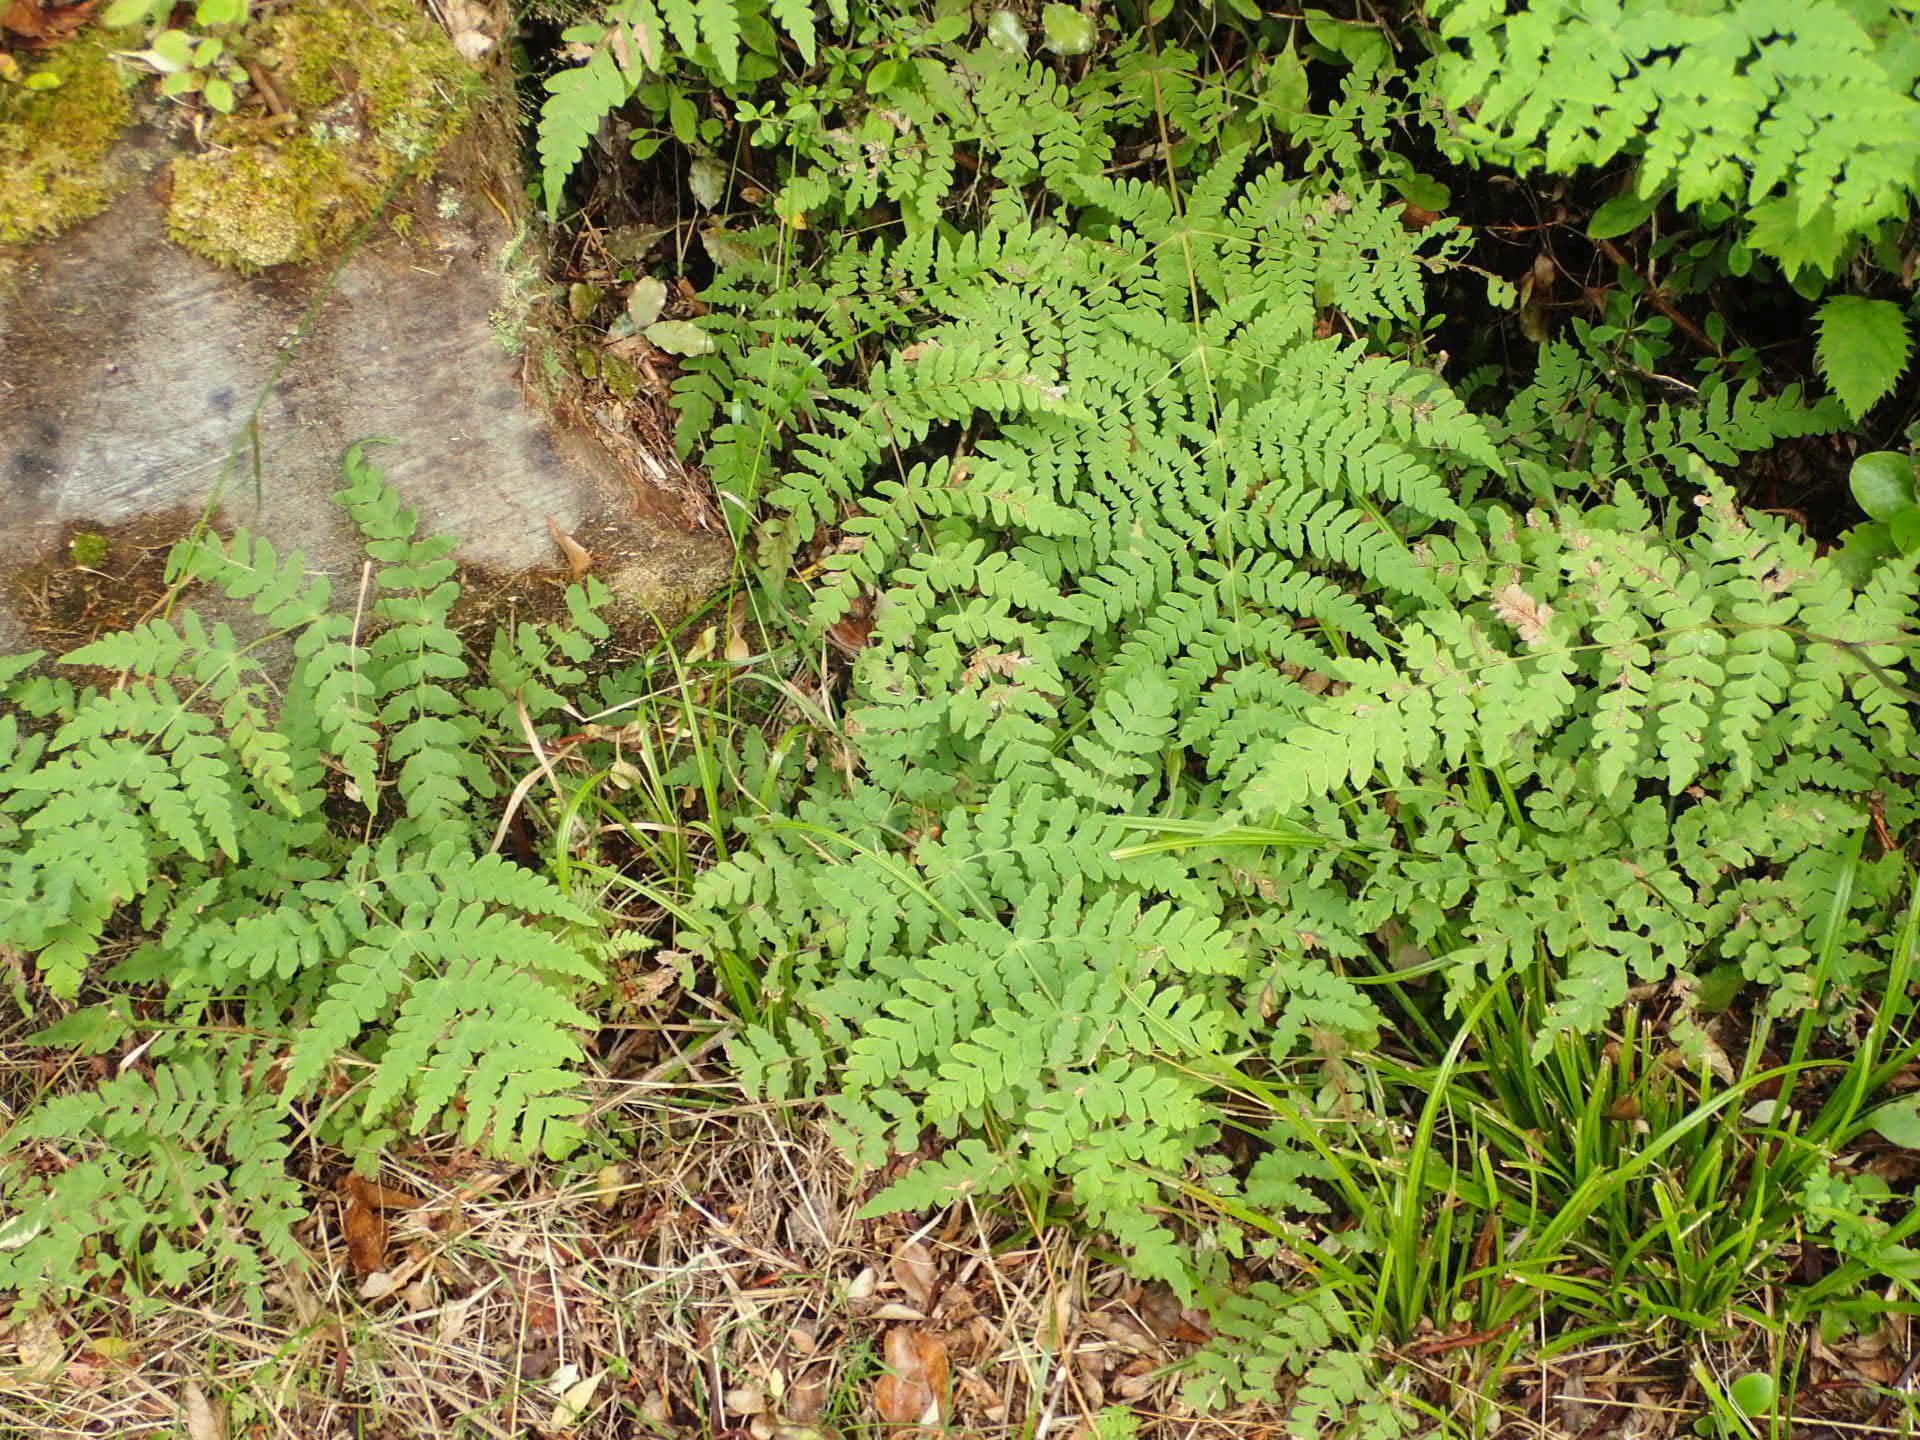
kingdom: Plantae
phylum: Tracheophyta
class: Polypodiopsida
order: Polypodiales
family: Dennstaedtiaceae
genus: Histiopteris
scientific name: Histiopteris incisa
